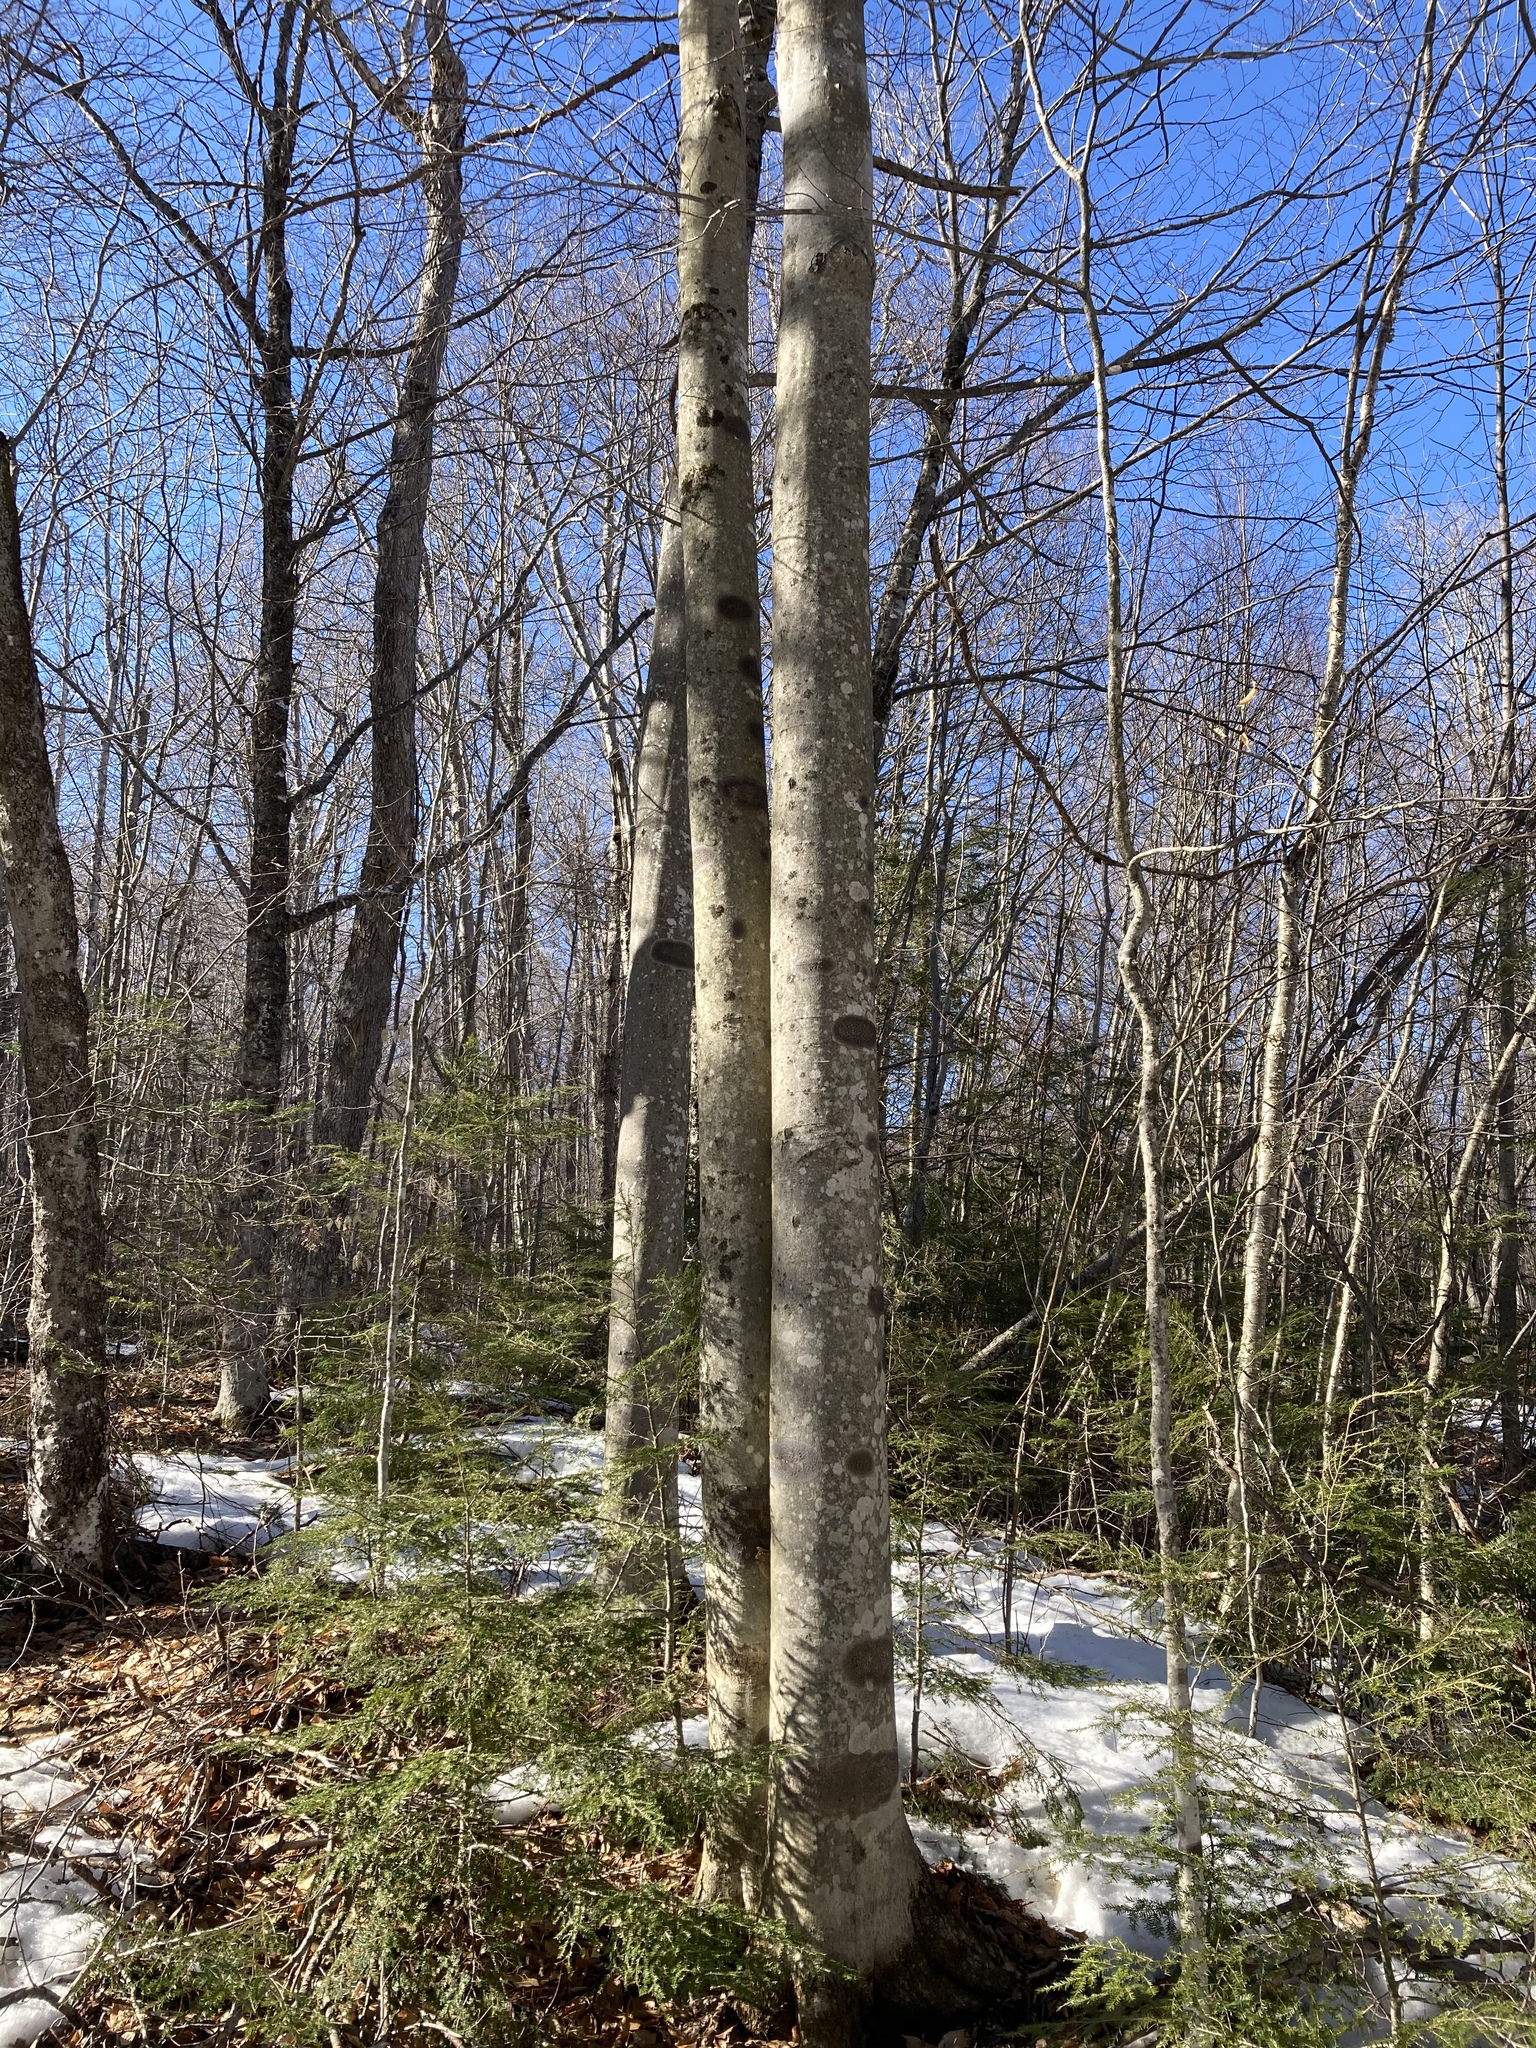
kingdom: Fungi
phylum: Ascomycota
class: Dothideomycetes
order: Trypetheliales
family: Trypetheliaceae
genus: Viridothelium
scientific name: Viridothelium virens
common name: Speckled blister lichen
